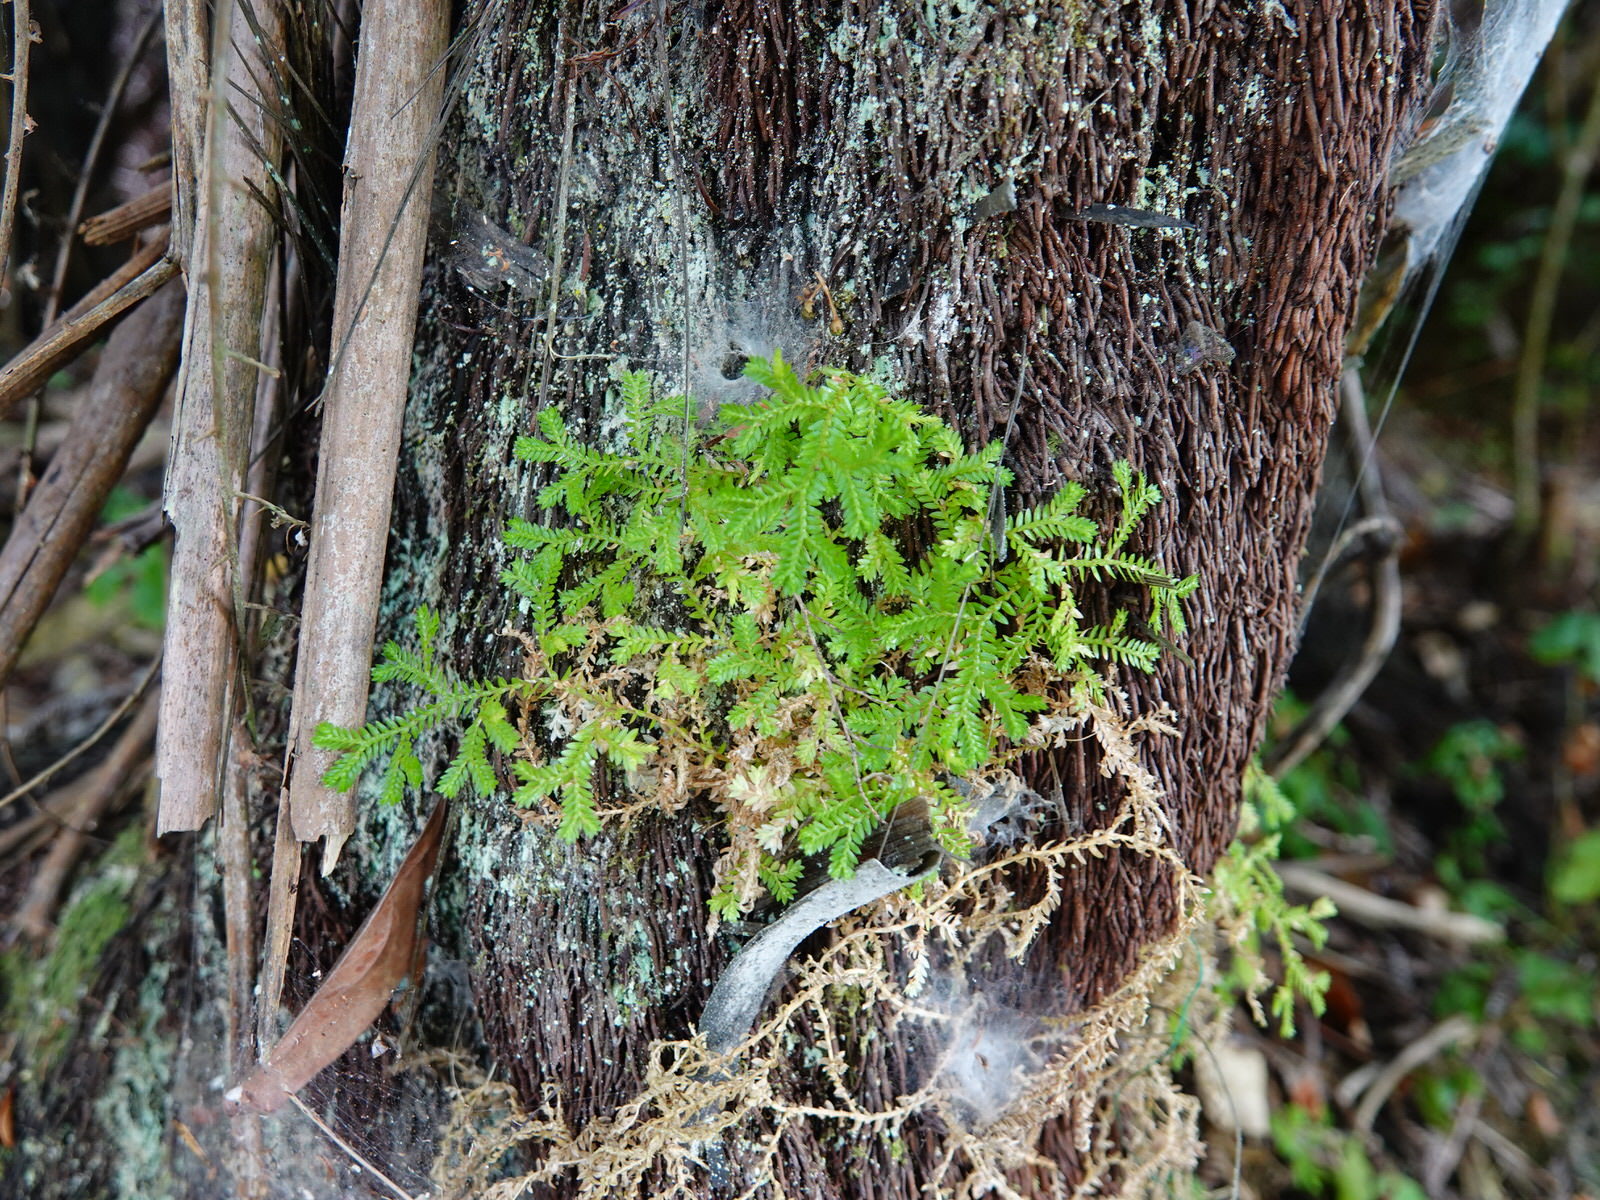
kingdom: Plantae
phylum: Tracheophyta
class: Lycopodiopsida
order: Selaginellales
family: Selaginellaceae
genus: Selaginella
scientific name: Selaginella kraussiana
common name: Krauss' spikemoss
